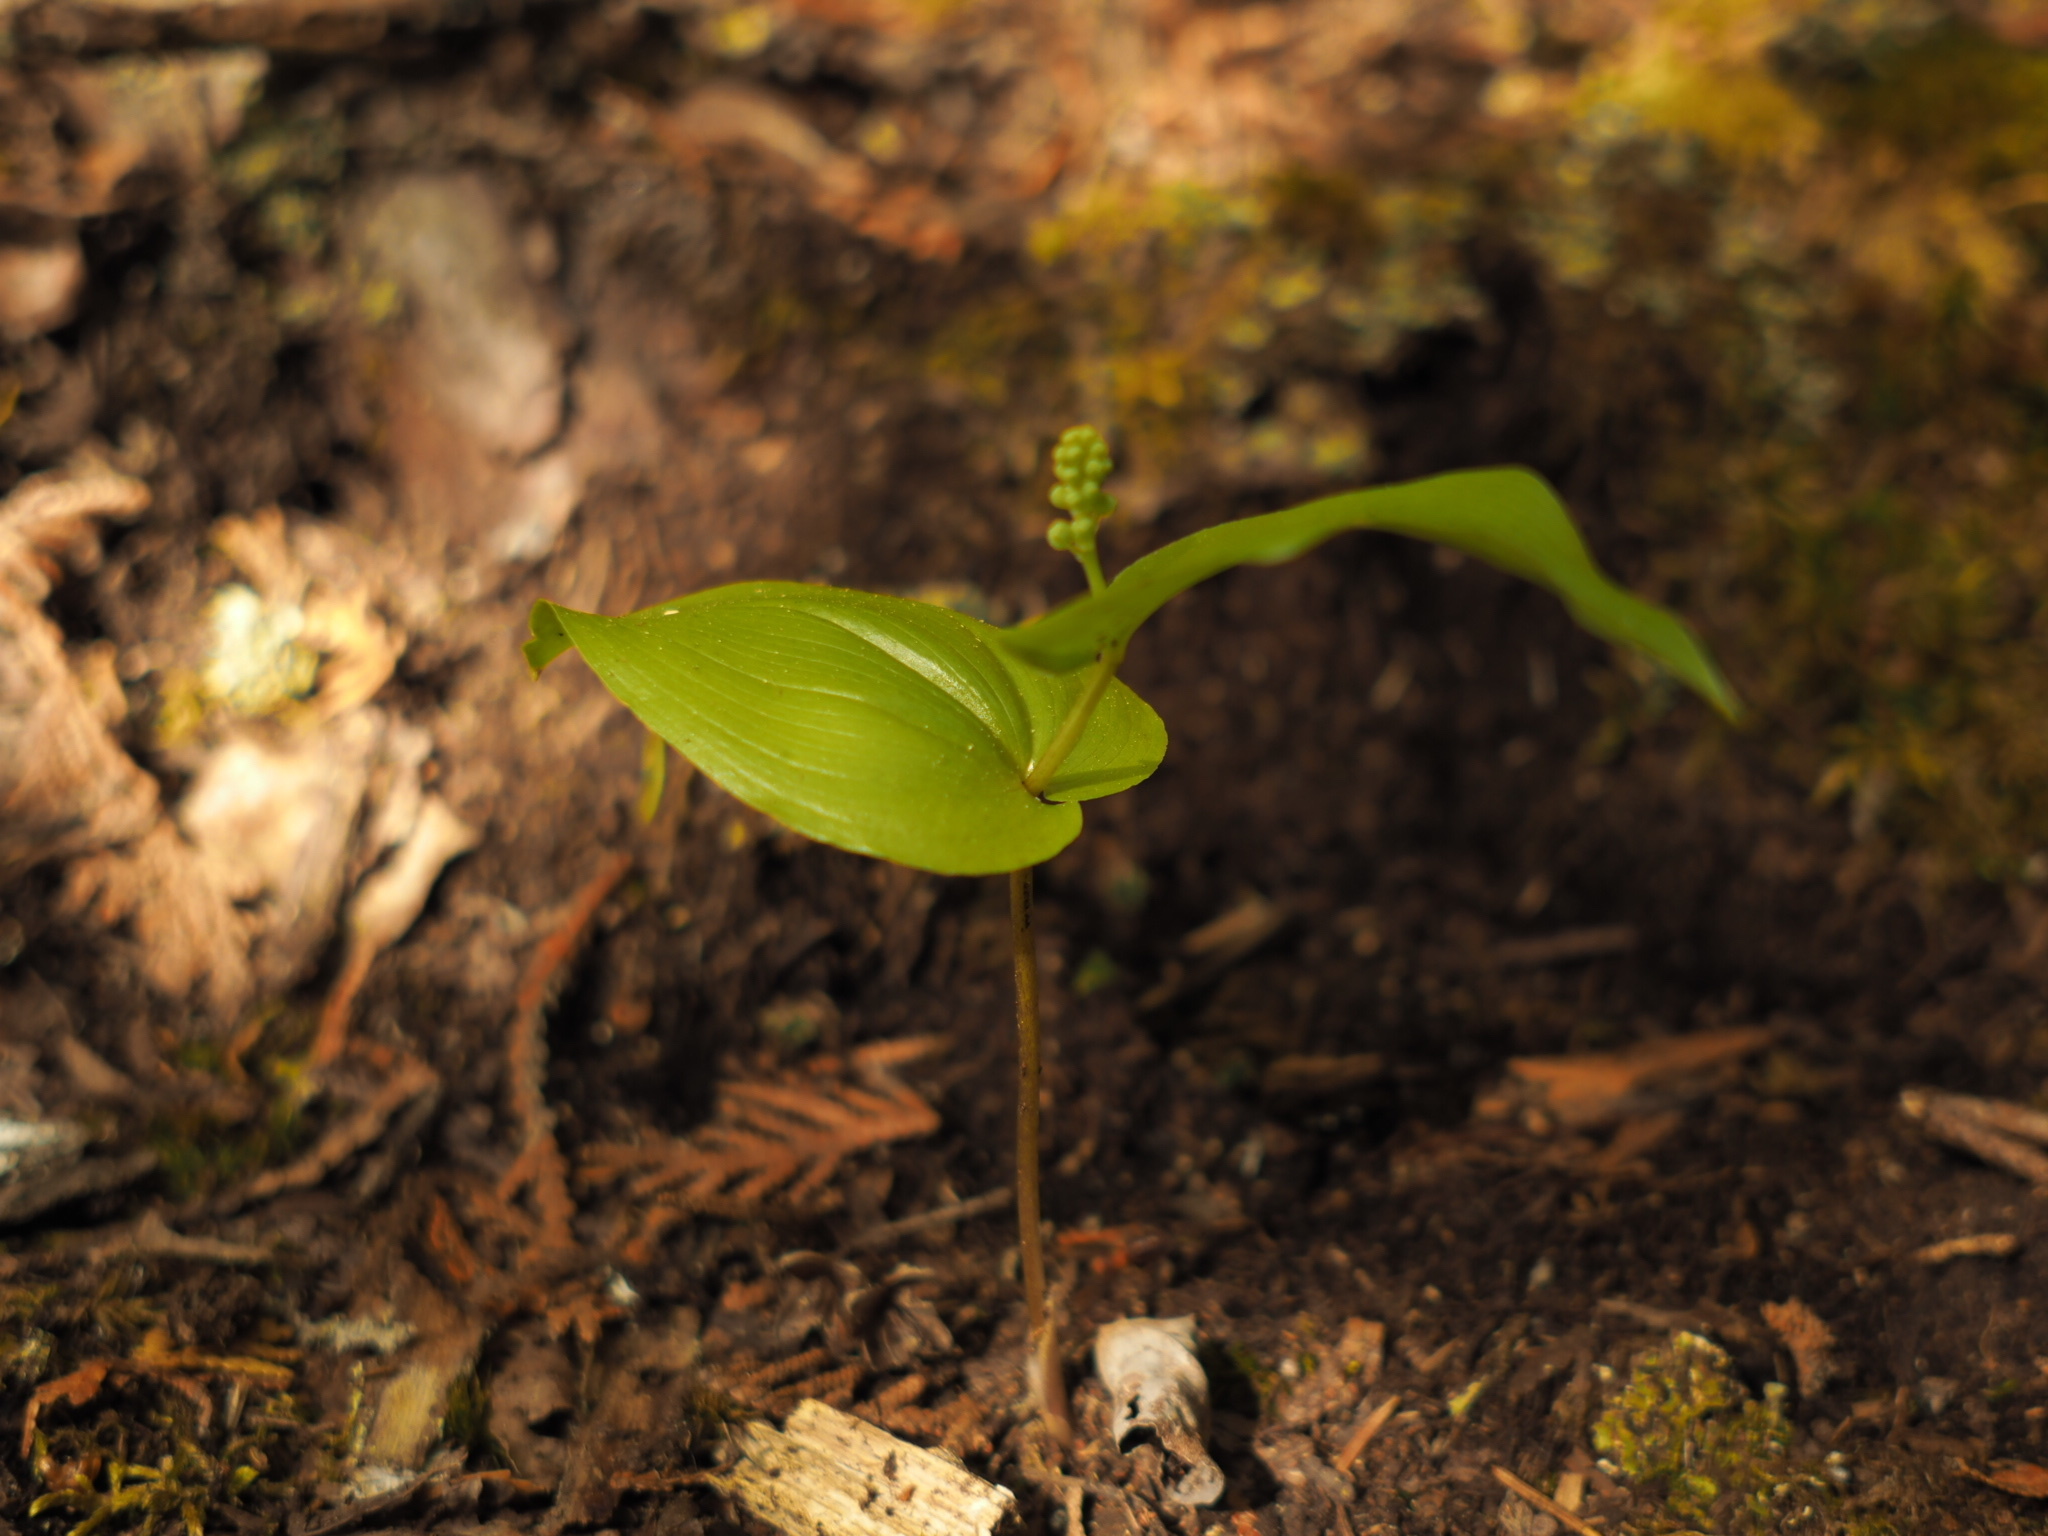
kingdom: Plantae
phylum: Tracheophyta
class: Liliopsida
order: Asparagales
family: Asparagaceae
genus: Maianthemum
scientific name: Maianthemum canadense
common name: False lily-of-the-valley
